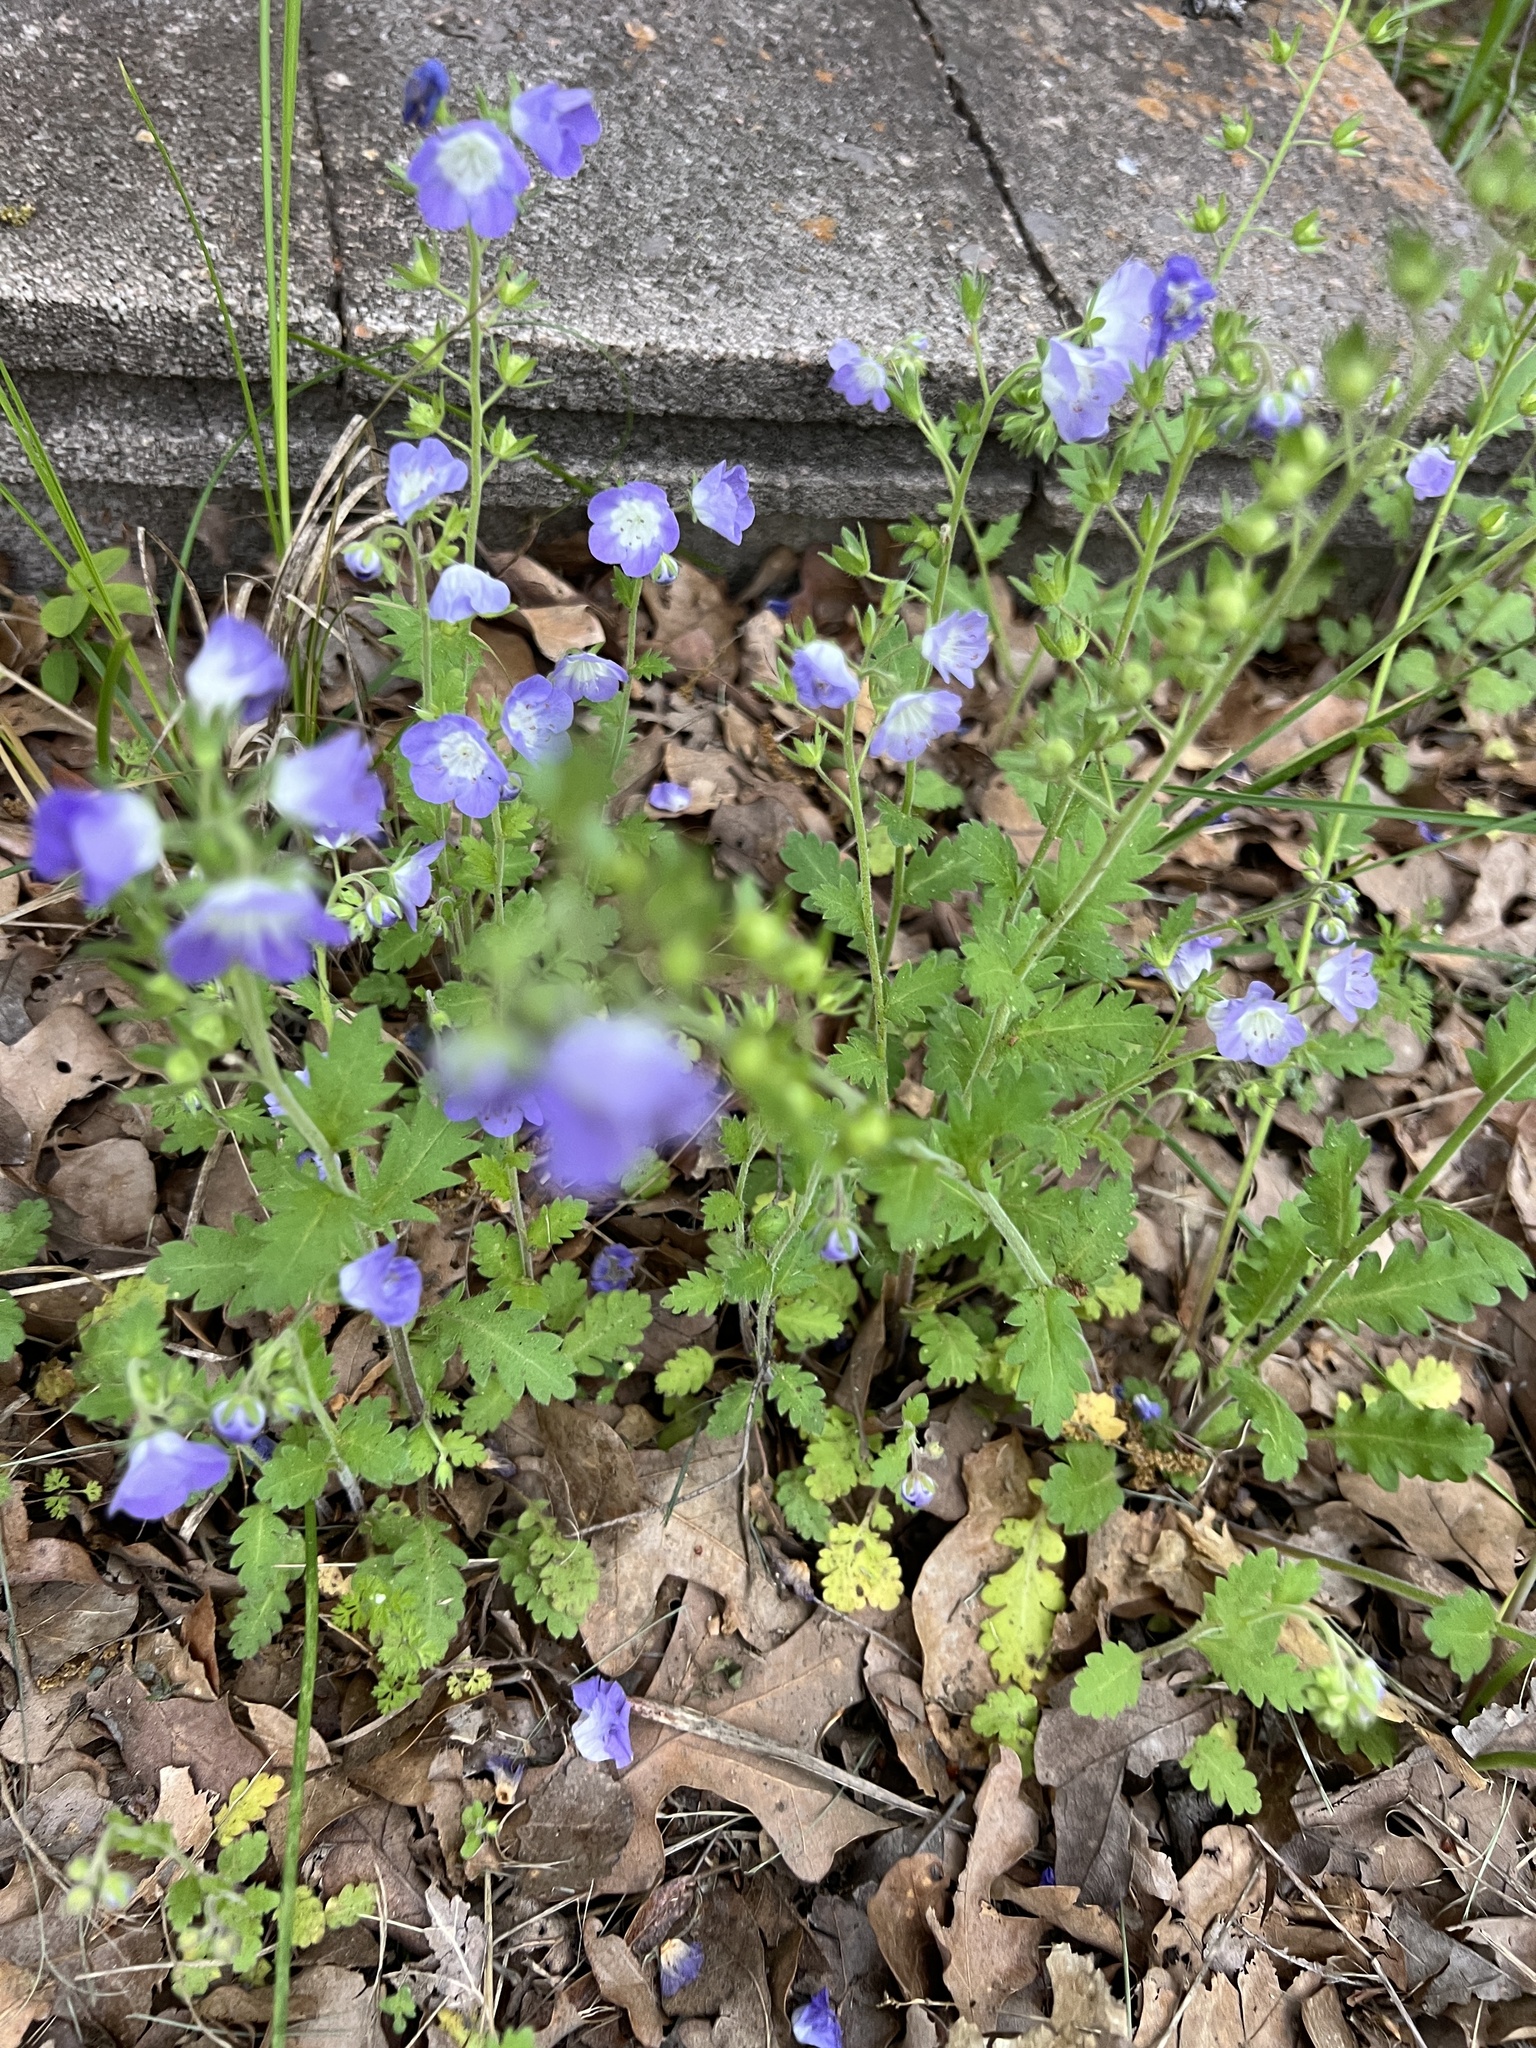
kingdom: Plantae
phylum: Tracheophyta
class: Magnoliopsida
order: Boraginales
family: Hydrophyllaceae
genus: Phacelia
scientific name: Phacelia patuliflora
